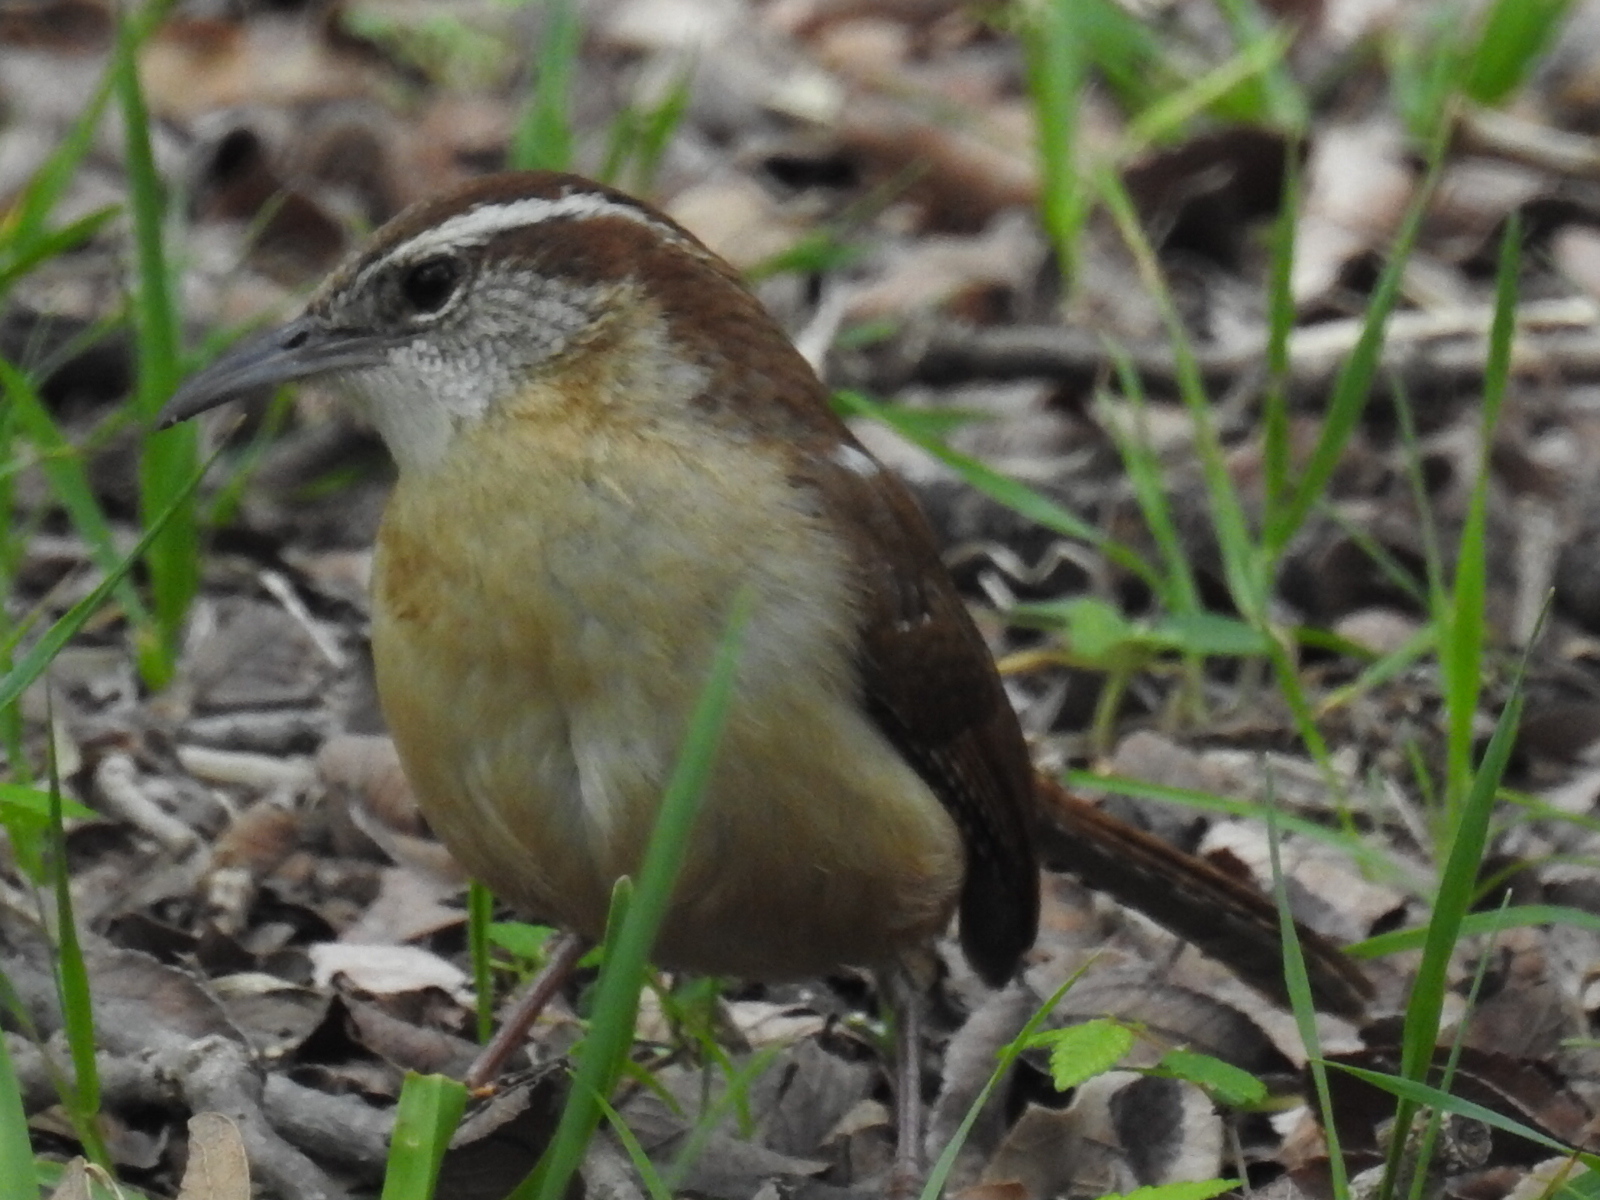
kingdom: Animalia
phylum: Chordata
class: Aves
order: Passeriformes
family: Troglodytidae
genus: Thryothorus
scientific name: Thryothorus ludovicianus
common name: Carolina wren
